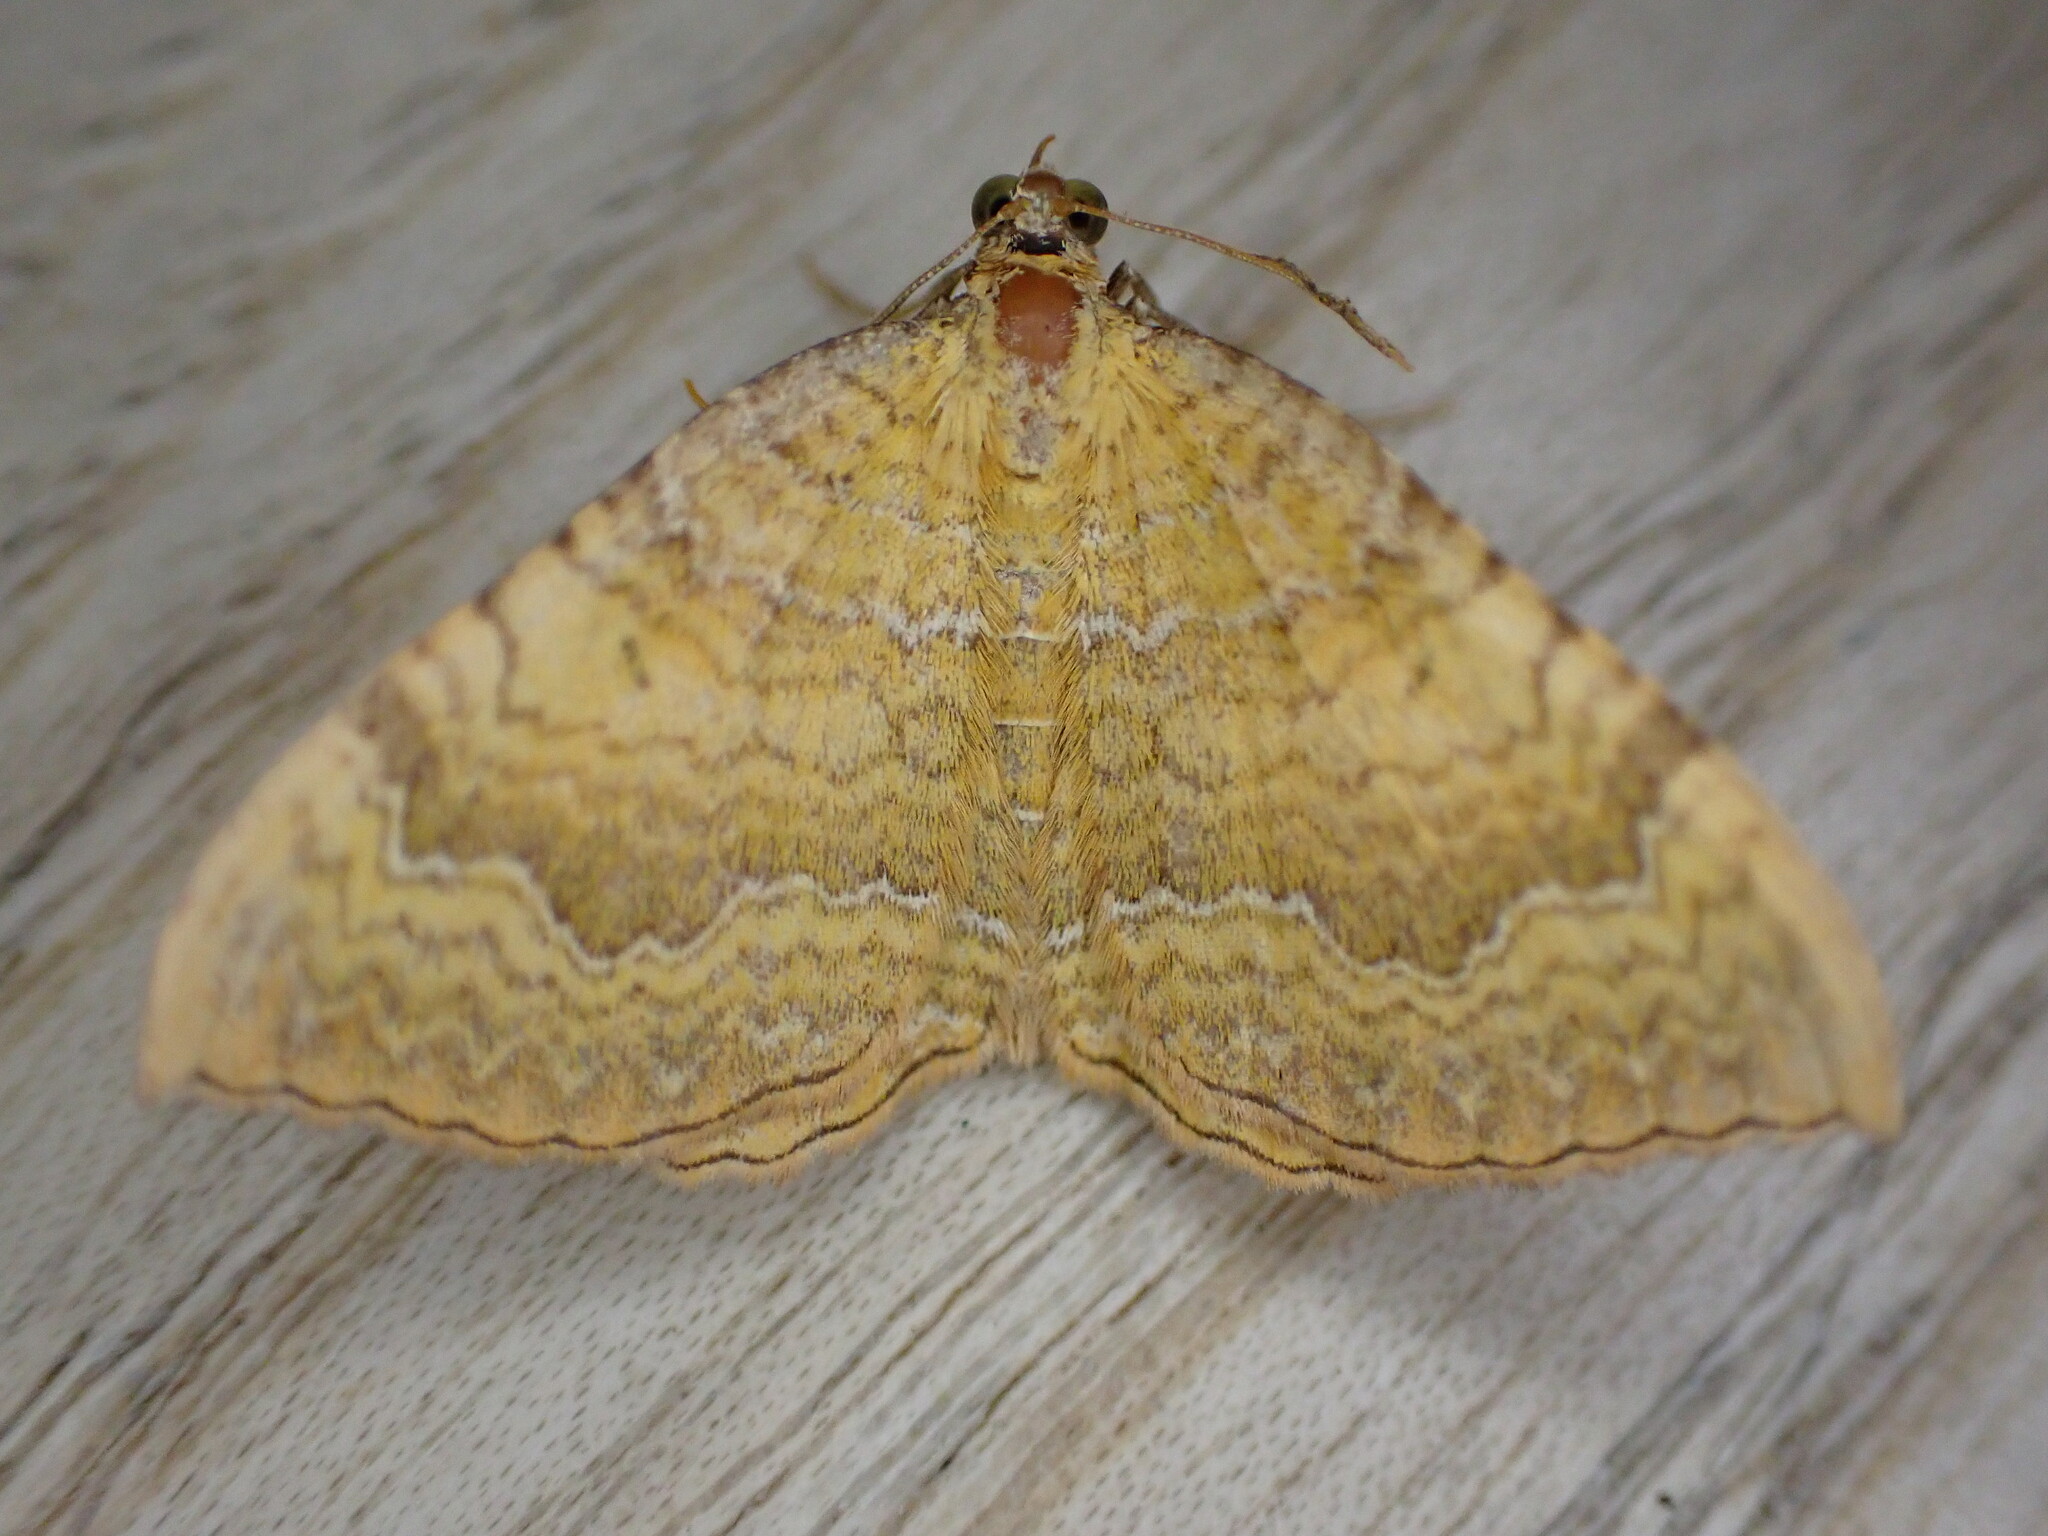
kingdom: Animalia
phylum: Arthropoda
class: Insecta
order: Lepidoptera
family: Geometridae
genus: Camptogramma
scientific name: Camptogramma bilineata
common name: Yellow shell
